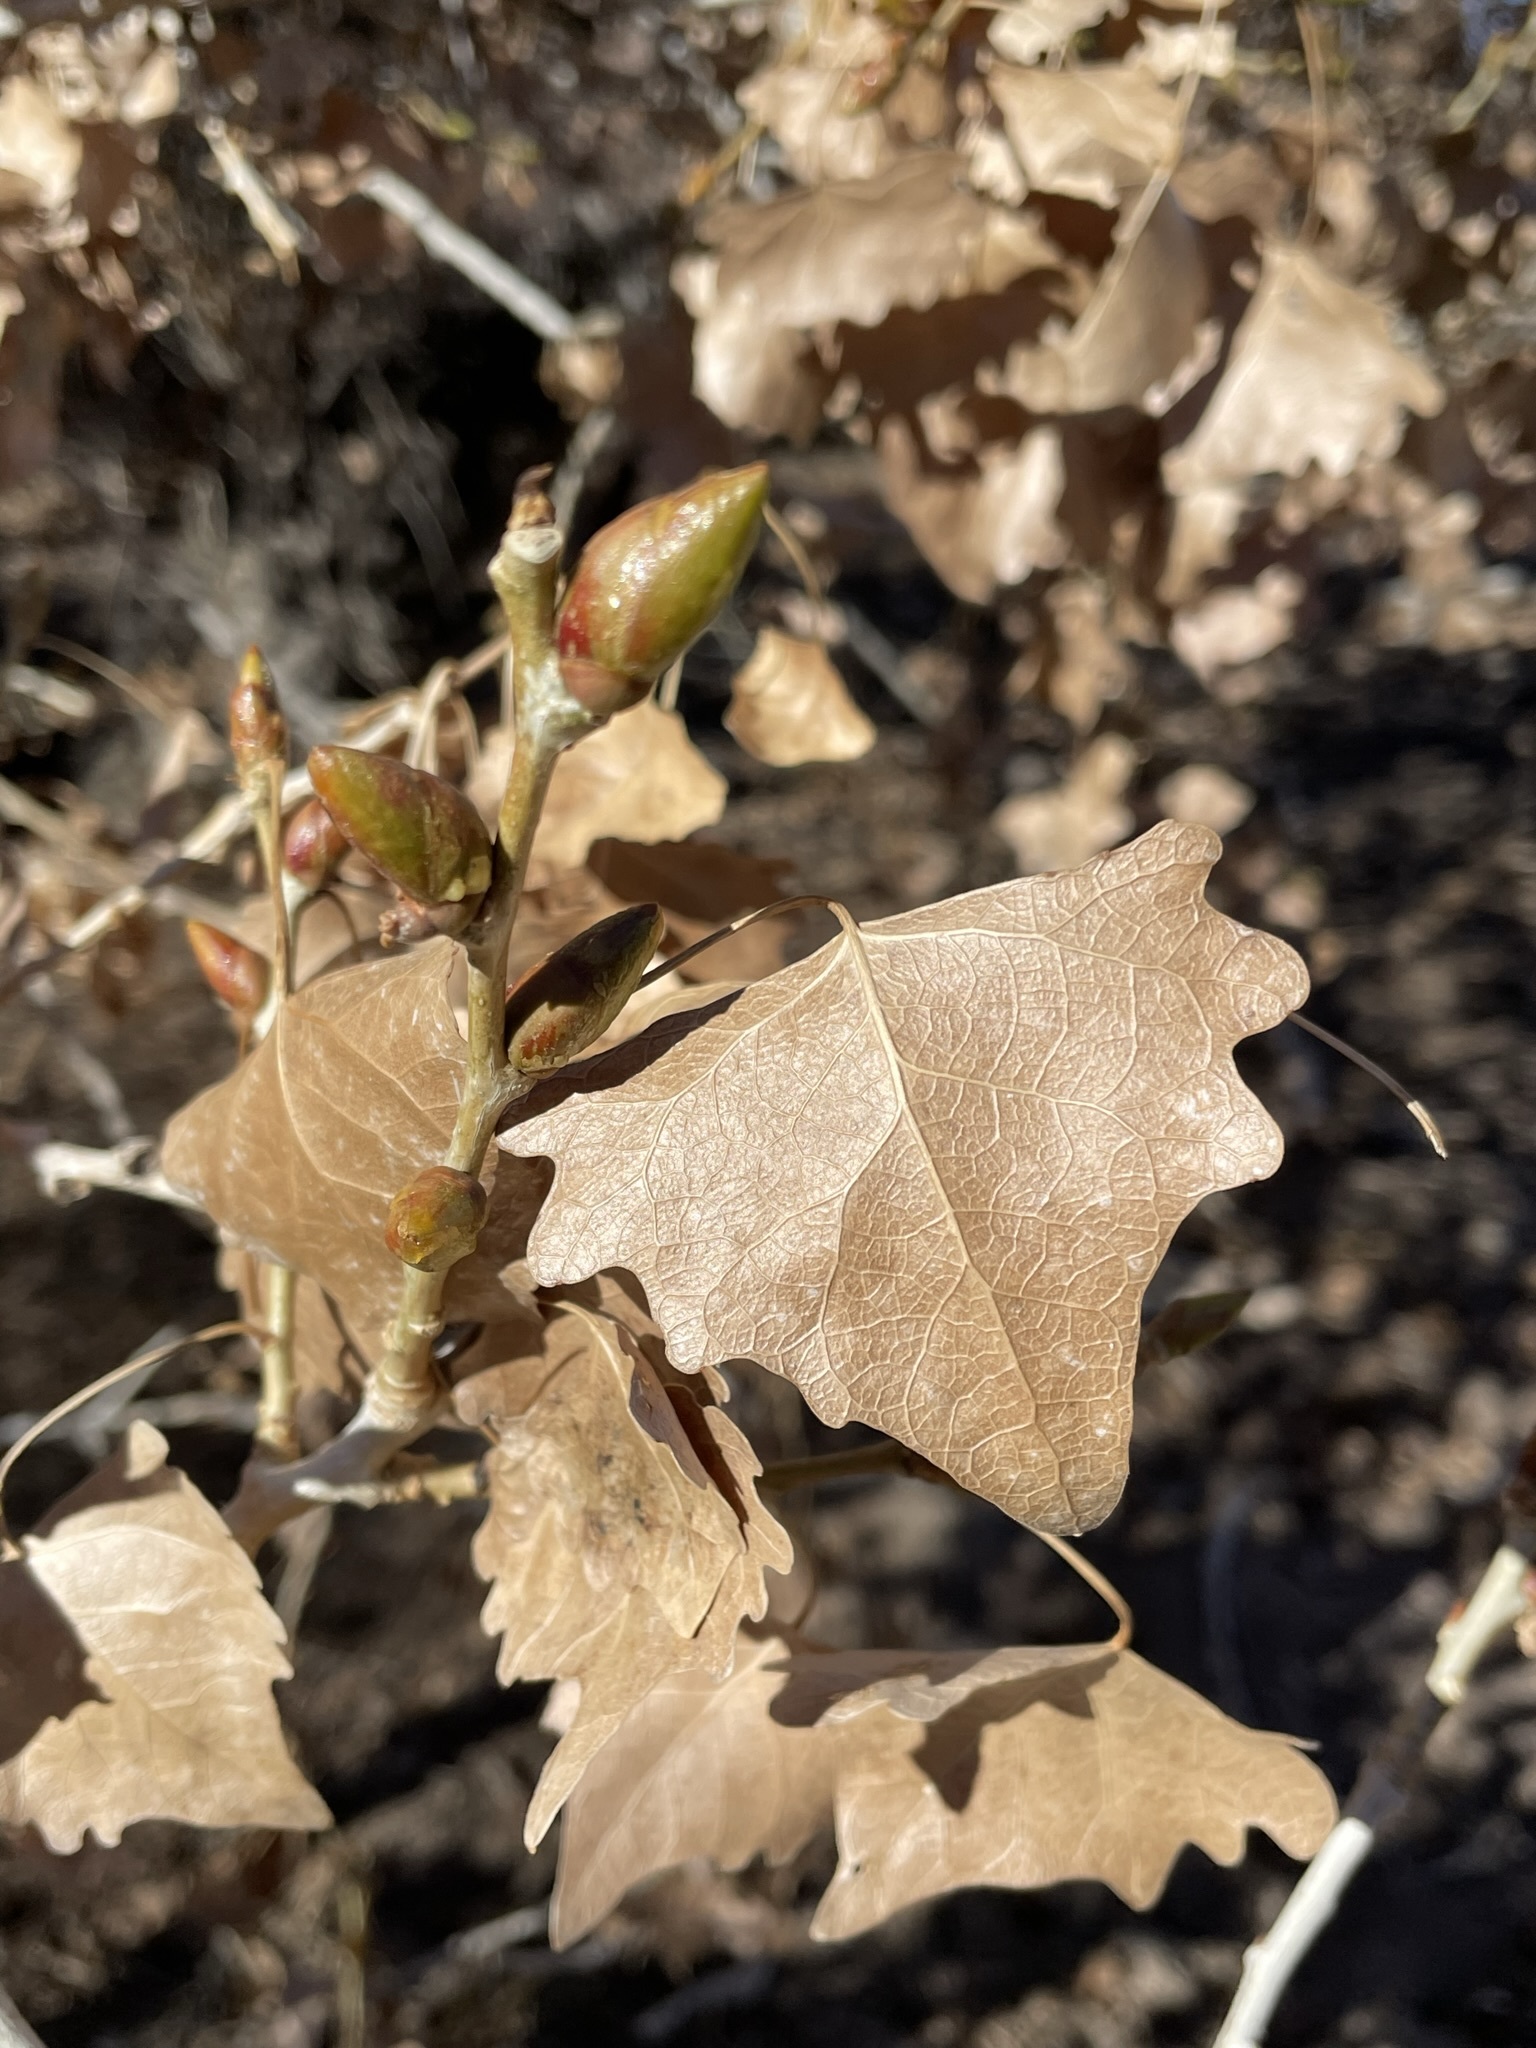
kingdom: Plantae
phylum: Tracheophyta
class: Magnoliopsida
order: Malpighiales
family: Salicaceae
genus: Populus
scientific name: Populus fremontii
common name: Fremont's cottonwood
